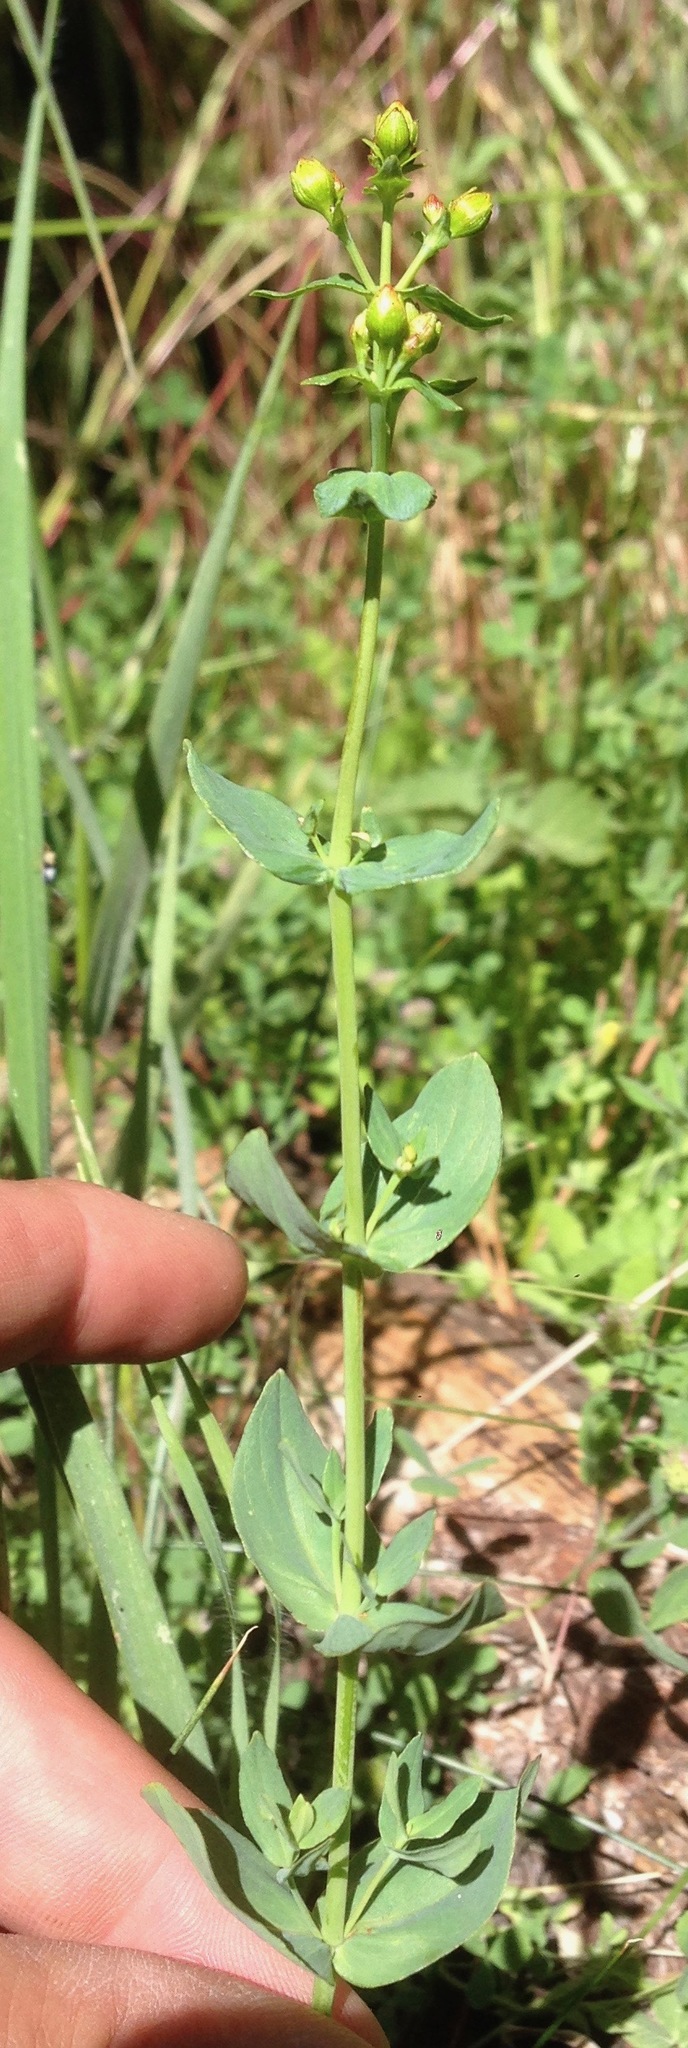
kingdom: Plantae
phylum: Tracheophyta
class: Magnoliopsida
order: Malpighiales
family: Hypericaceae
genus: Hypericum
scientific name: Hypericum scouleri
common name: Scouler's st. john's-wort
